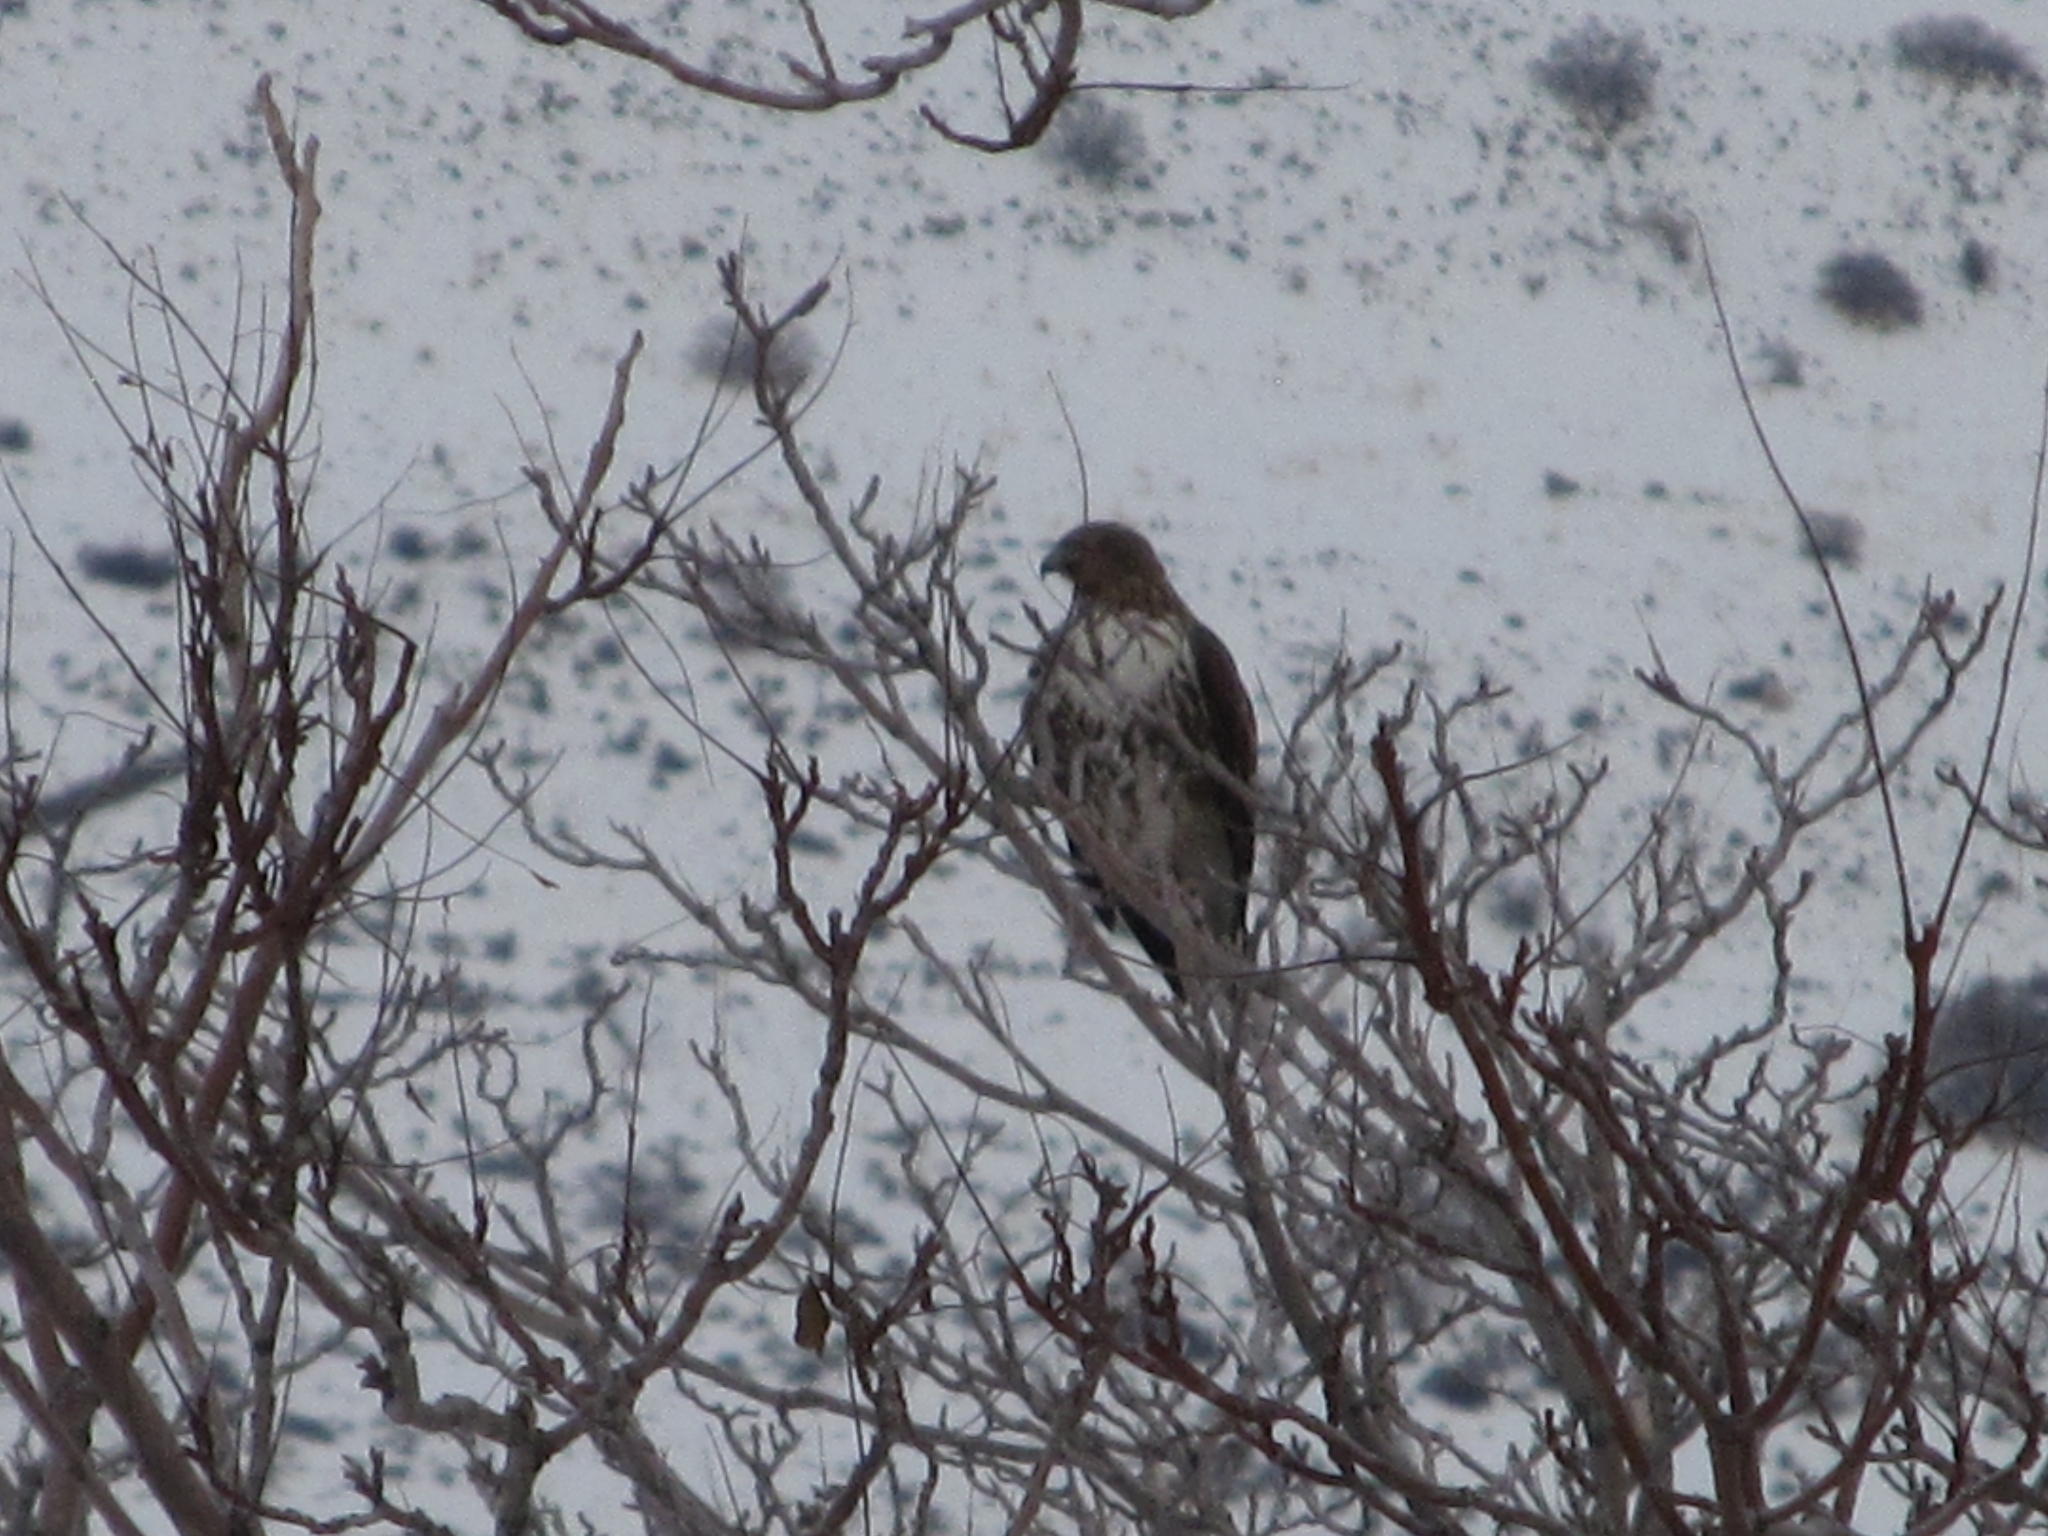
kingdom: Animalia
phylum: Chordata
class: Aves
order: Accipitriformes
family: Accipitridae
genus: Buteo
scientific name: Buteo jamaicensis
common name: Red-tailed hawk
